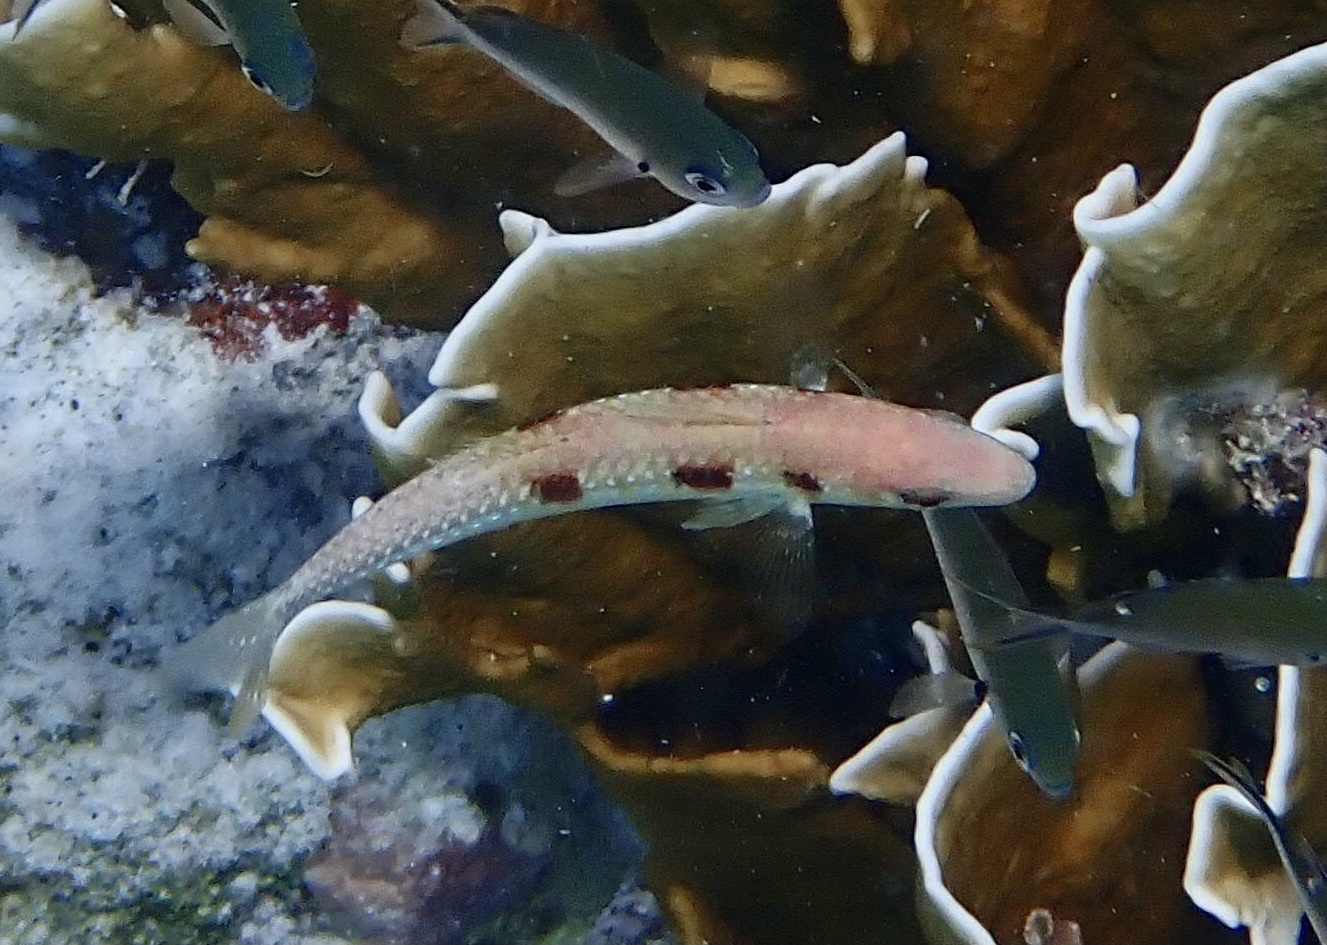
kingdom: Animalia
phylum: Chordata
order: Perciformes
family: Mullidae
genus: Pseudupeneus
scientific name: Pseudupeneus maculatus
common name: Spotted goatfish
